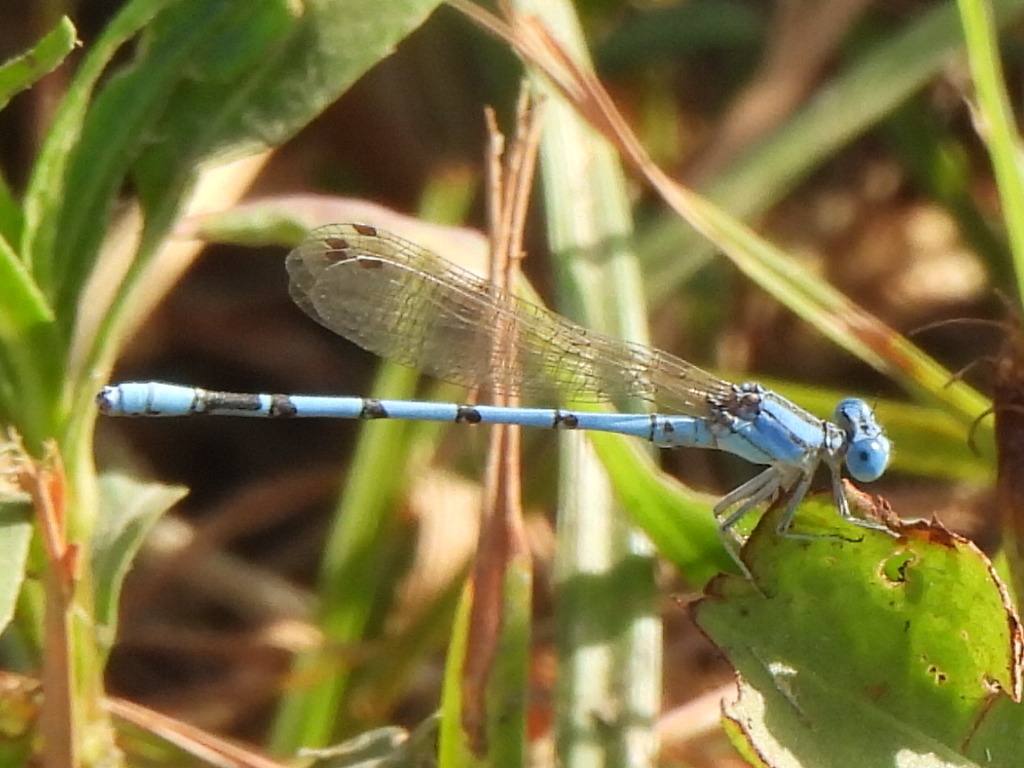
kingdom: Animalia
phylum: Arthropoda
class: Insecta
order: Odonata
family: Coenagrionidae
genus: Argia
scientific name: Argia nahuana
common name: Aztec dancer
